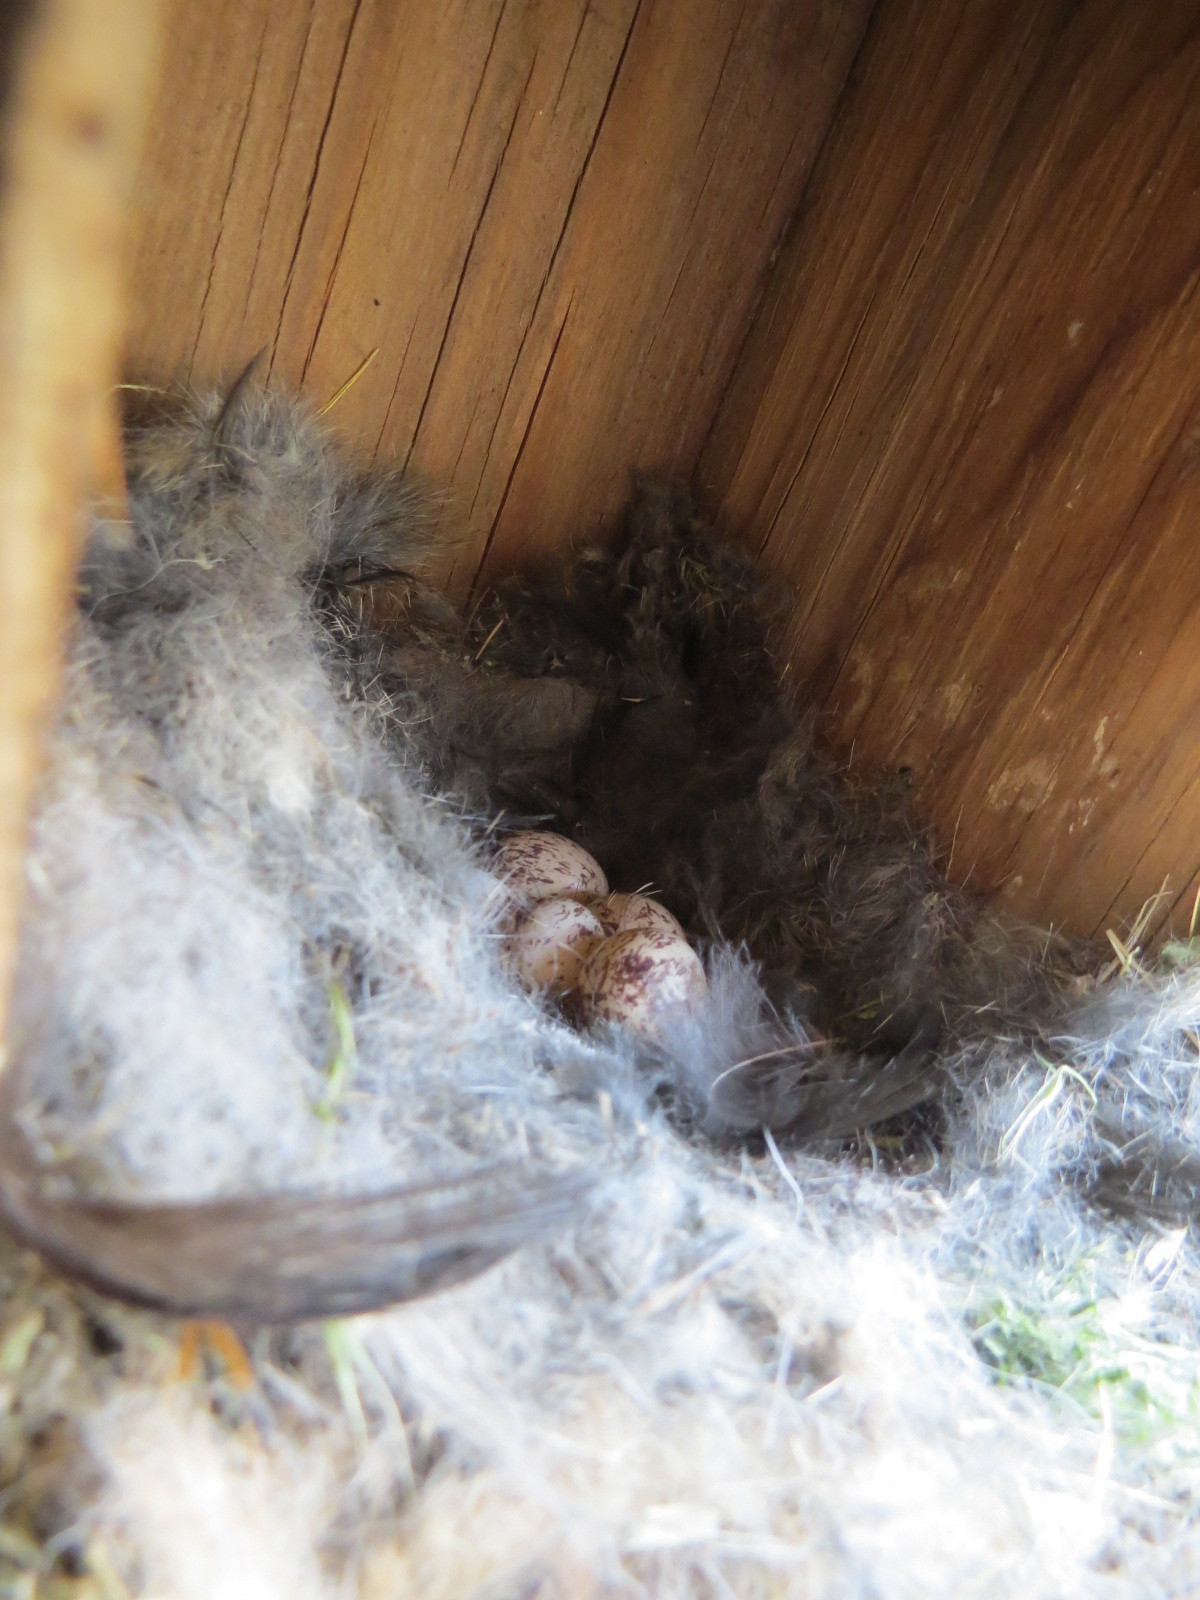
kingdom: Animalia
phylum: Chordata
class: Aves
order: Passeriformes
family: Tyrannidae
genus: Myiarchus
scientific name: Myiarchus cinerascens
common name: Ash-throated flycatcher
